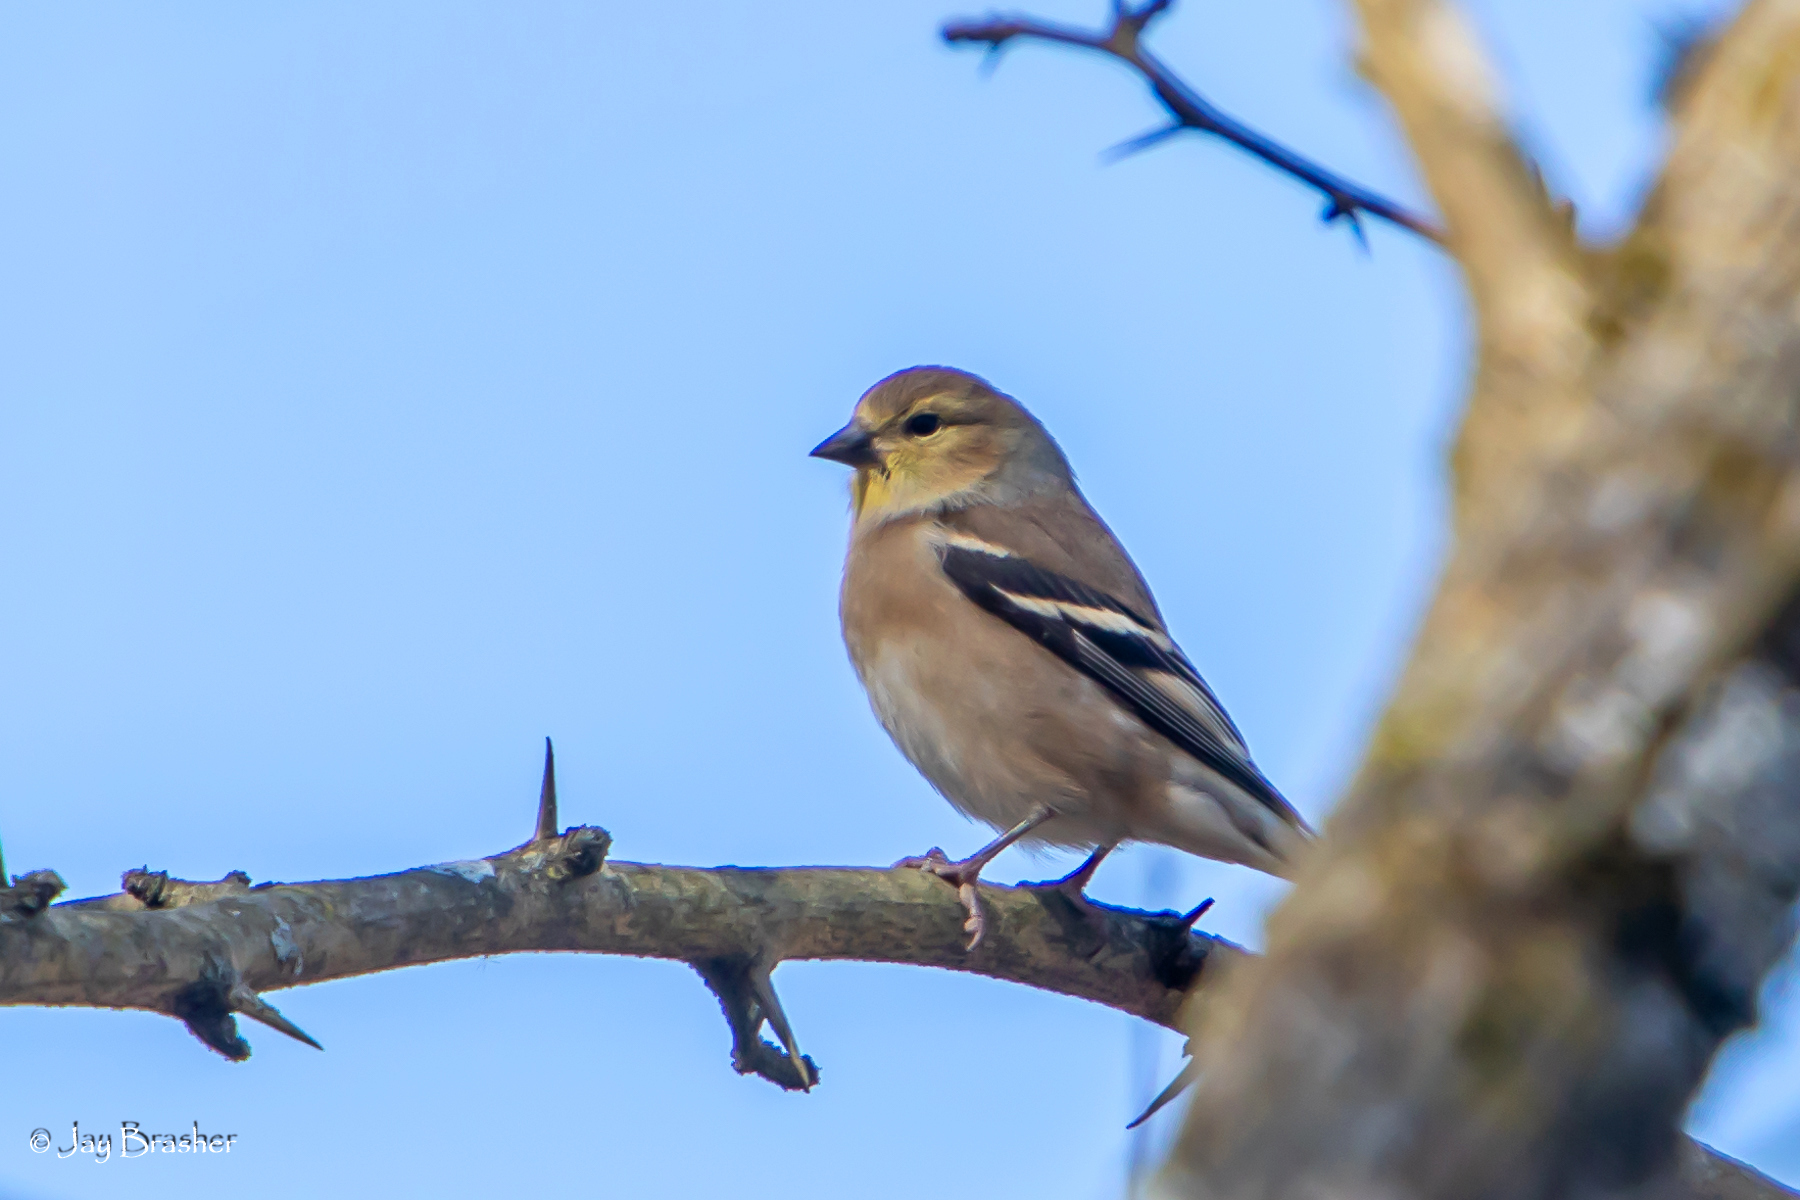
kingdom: Animalia
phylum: Chordata
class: Aves
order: Passeriformes
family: Fringillidae
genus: Spinus
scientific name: Spinus tristis
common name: American goldfinch
